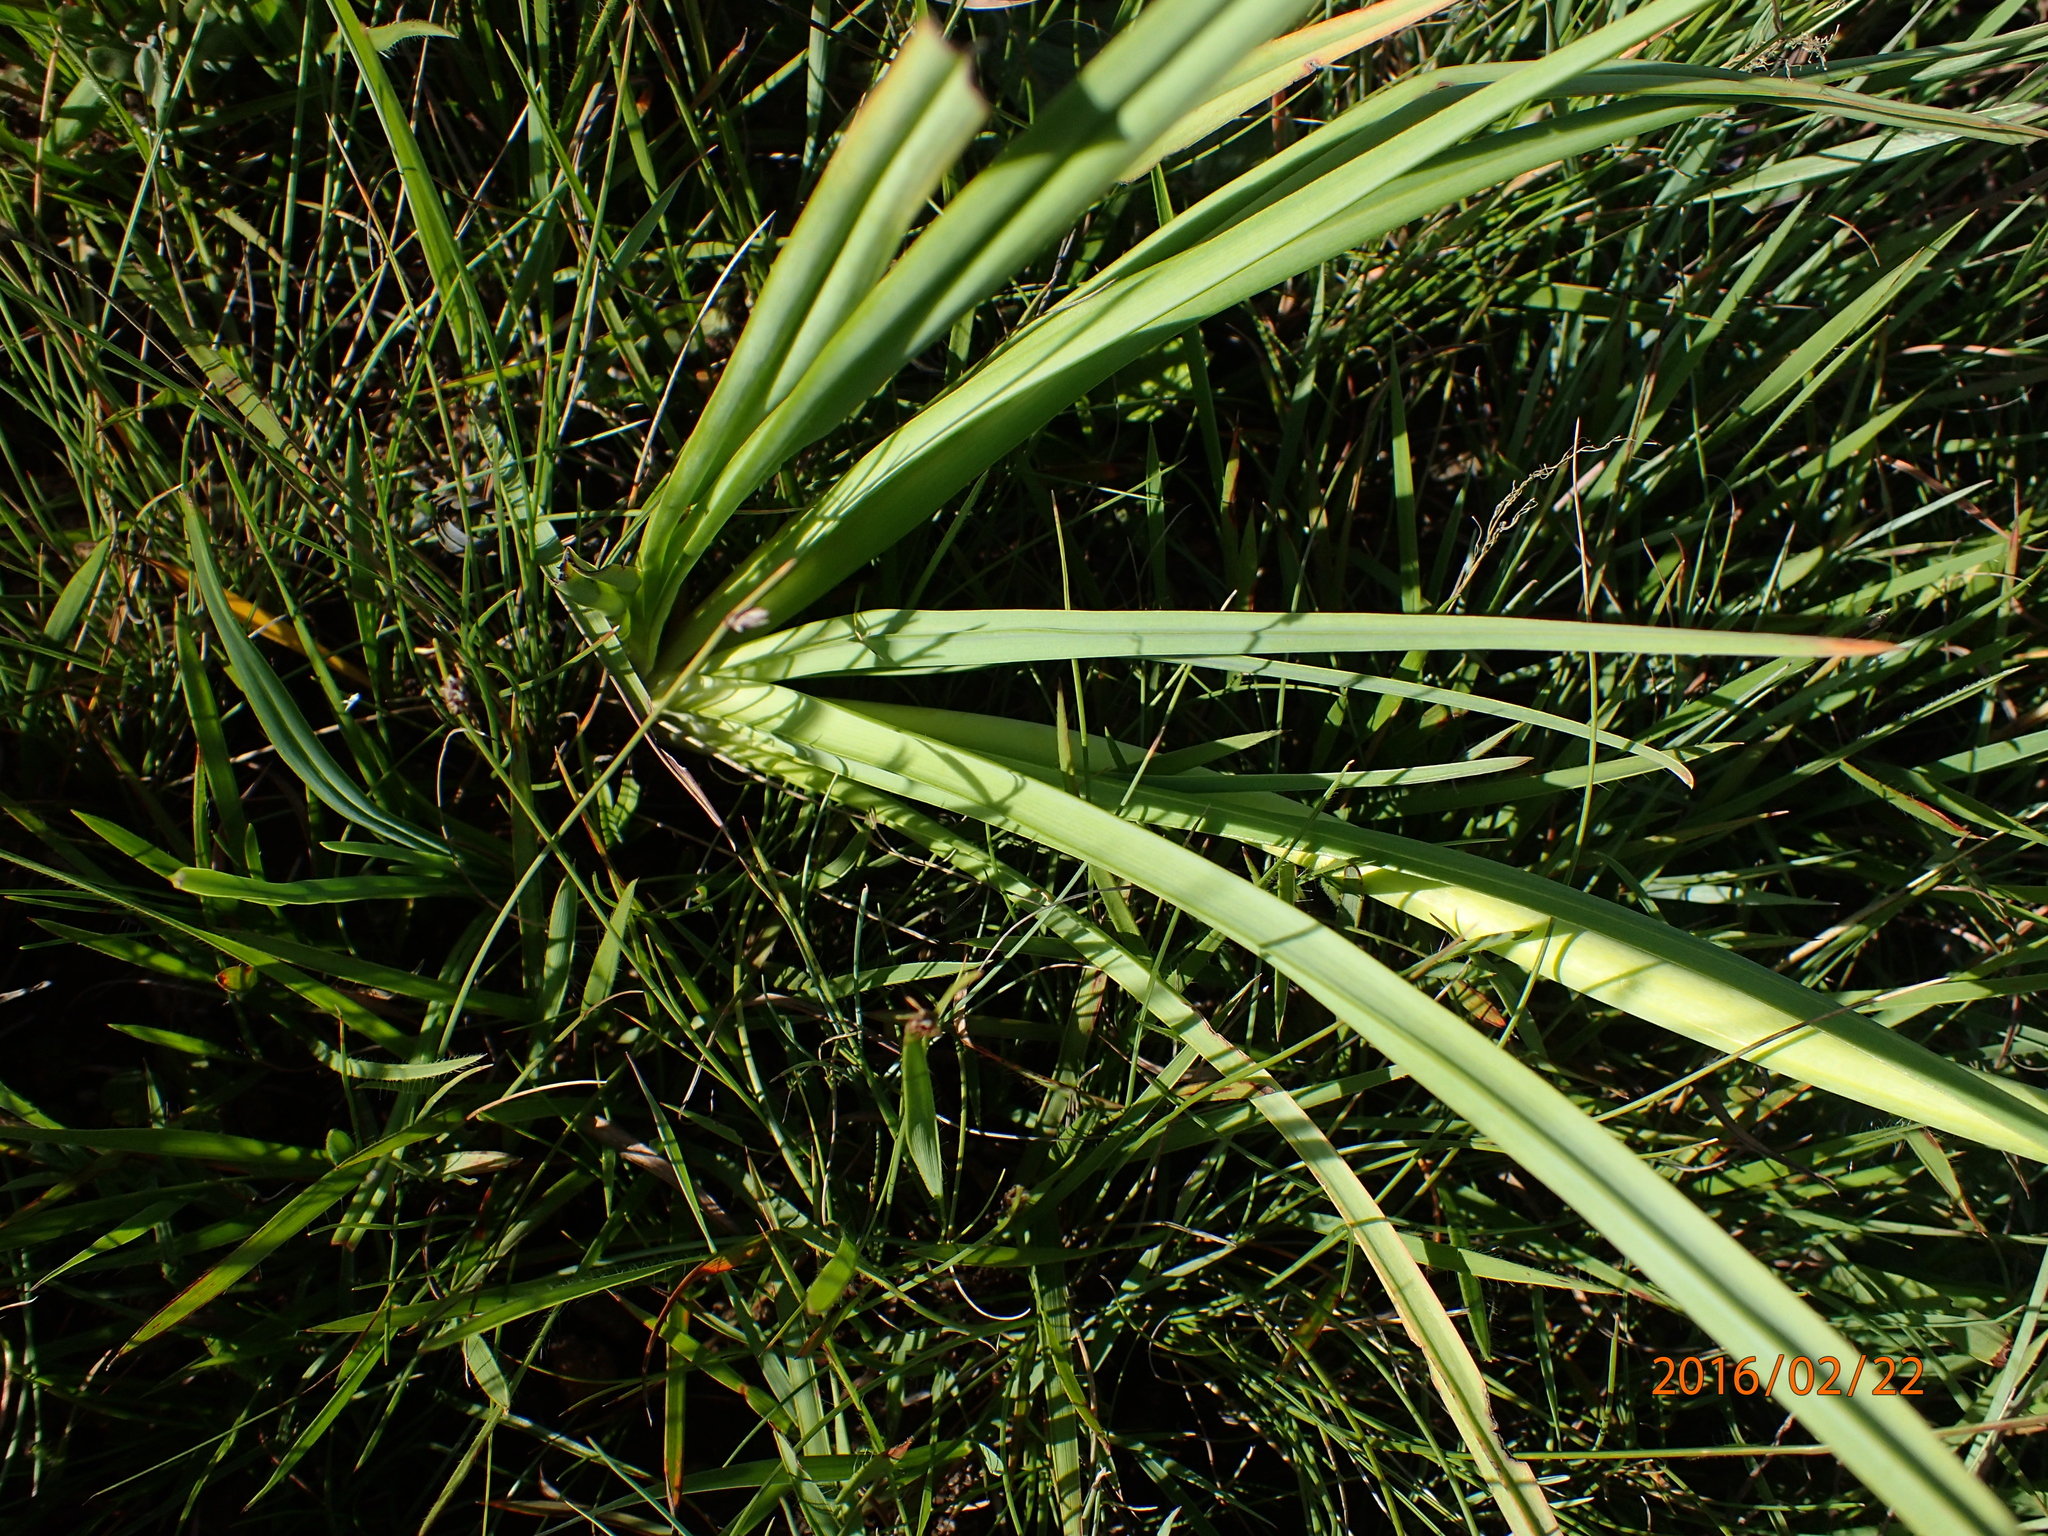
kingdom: Plantae
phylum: Tracheophyta
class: Liliopsida
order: Asparagales
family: Asphodelaceae
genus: Kniphofia
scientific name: Kniphofia porphyrantha
